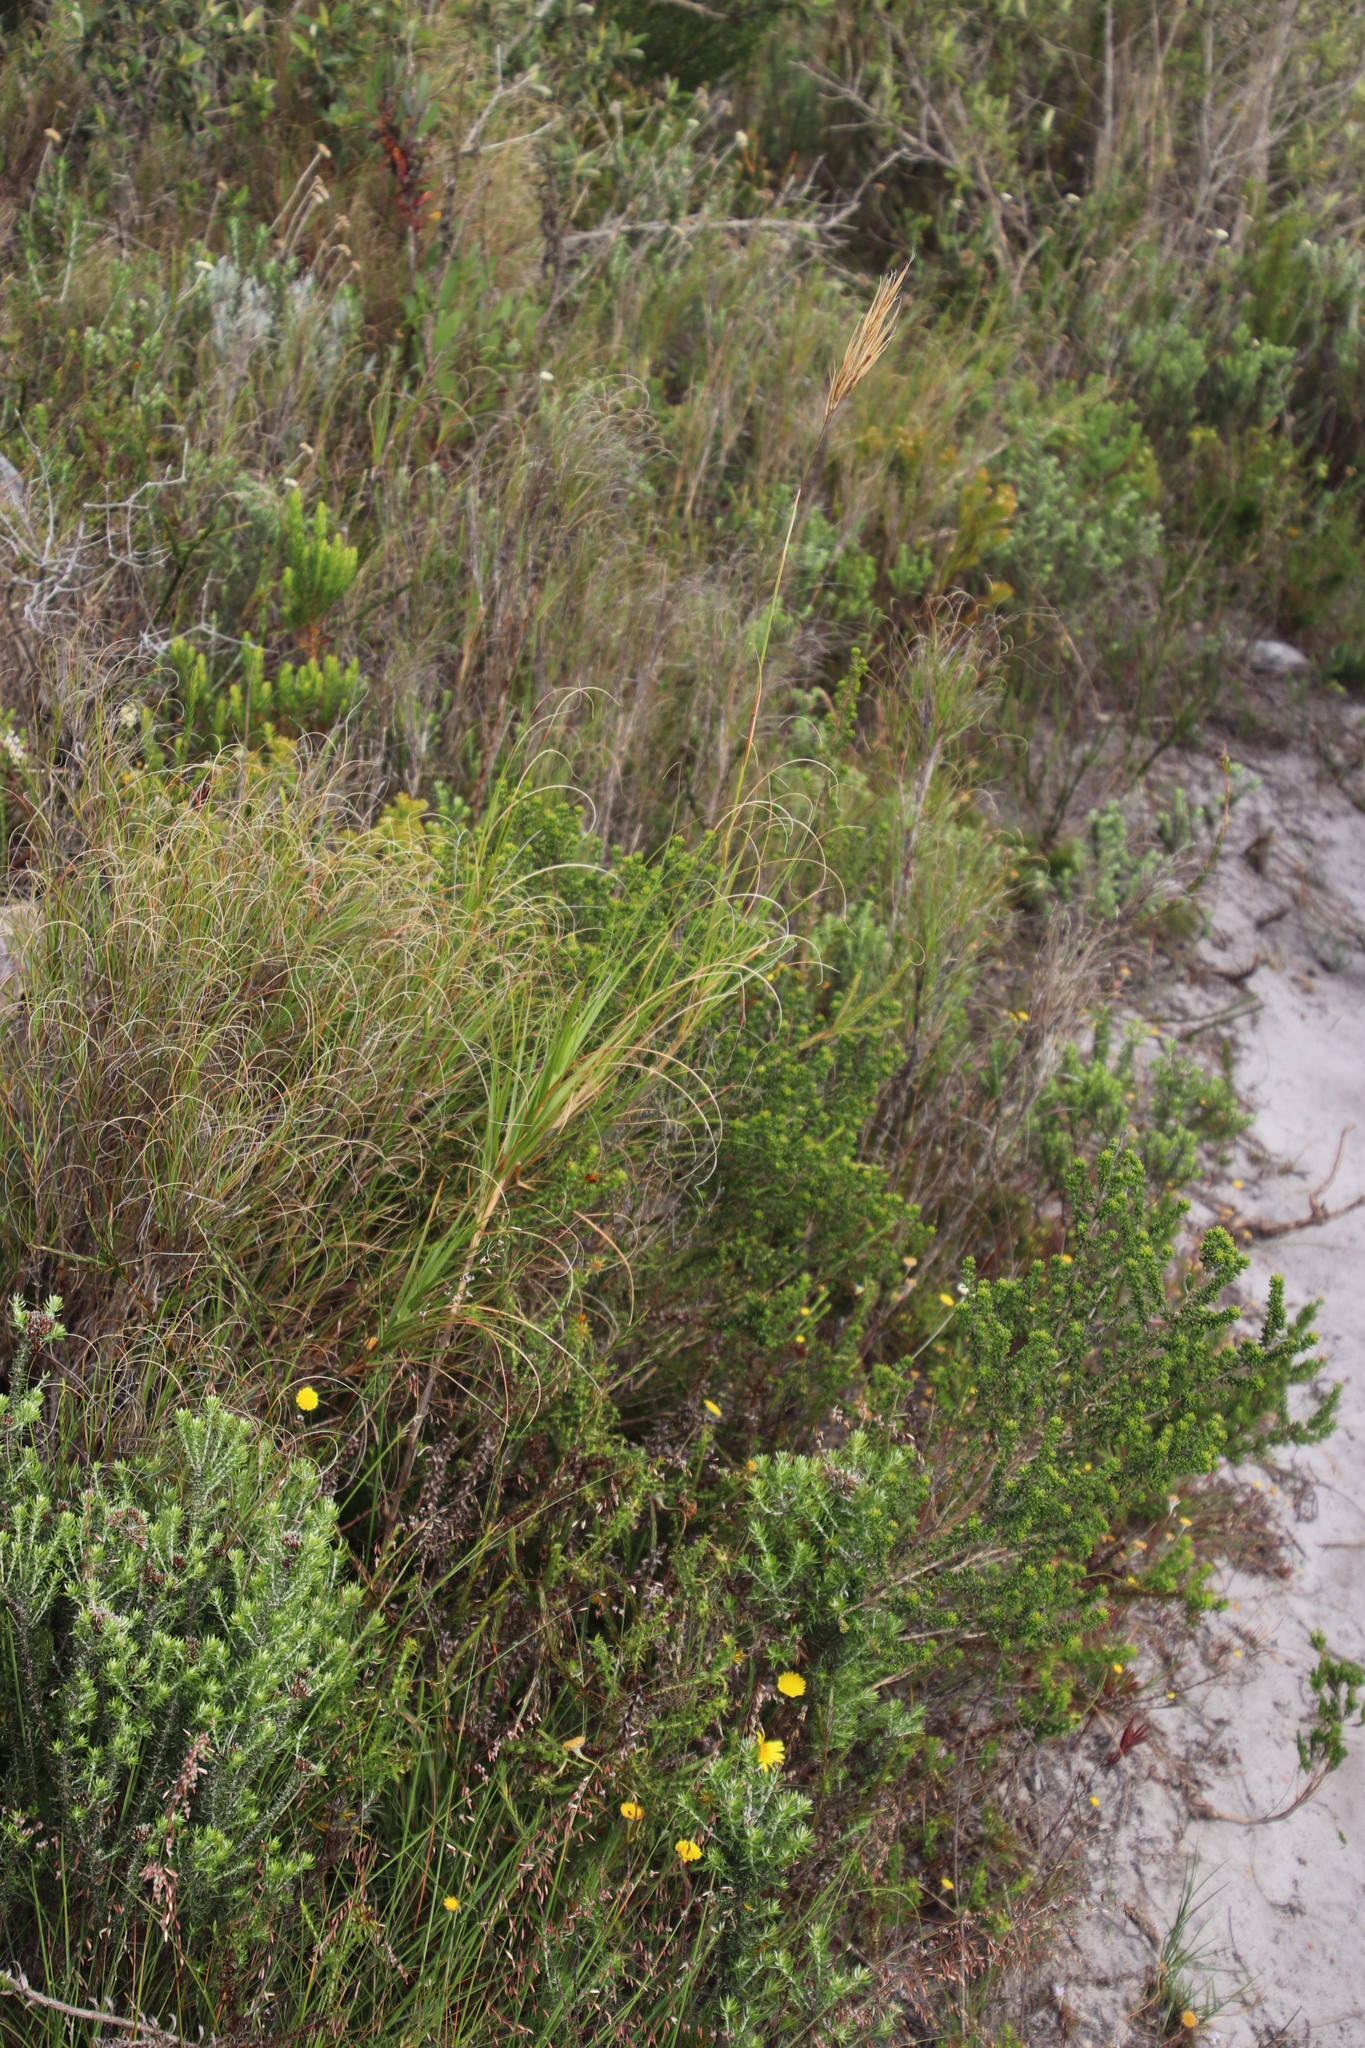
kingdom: Plantae
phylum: Tracheophyta
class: Liliopsida
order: Poales
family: Poaceae
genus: Pseudopentameris
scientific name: Pseudopentameris macrantha
